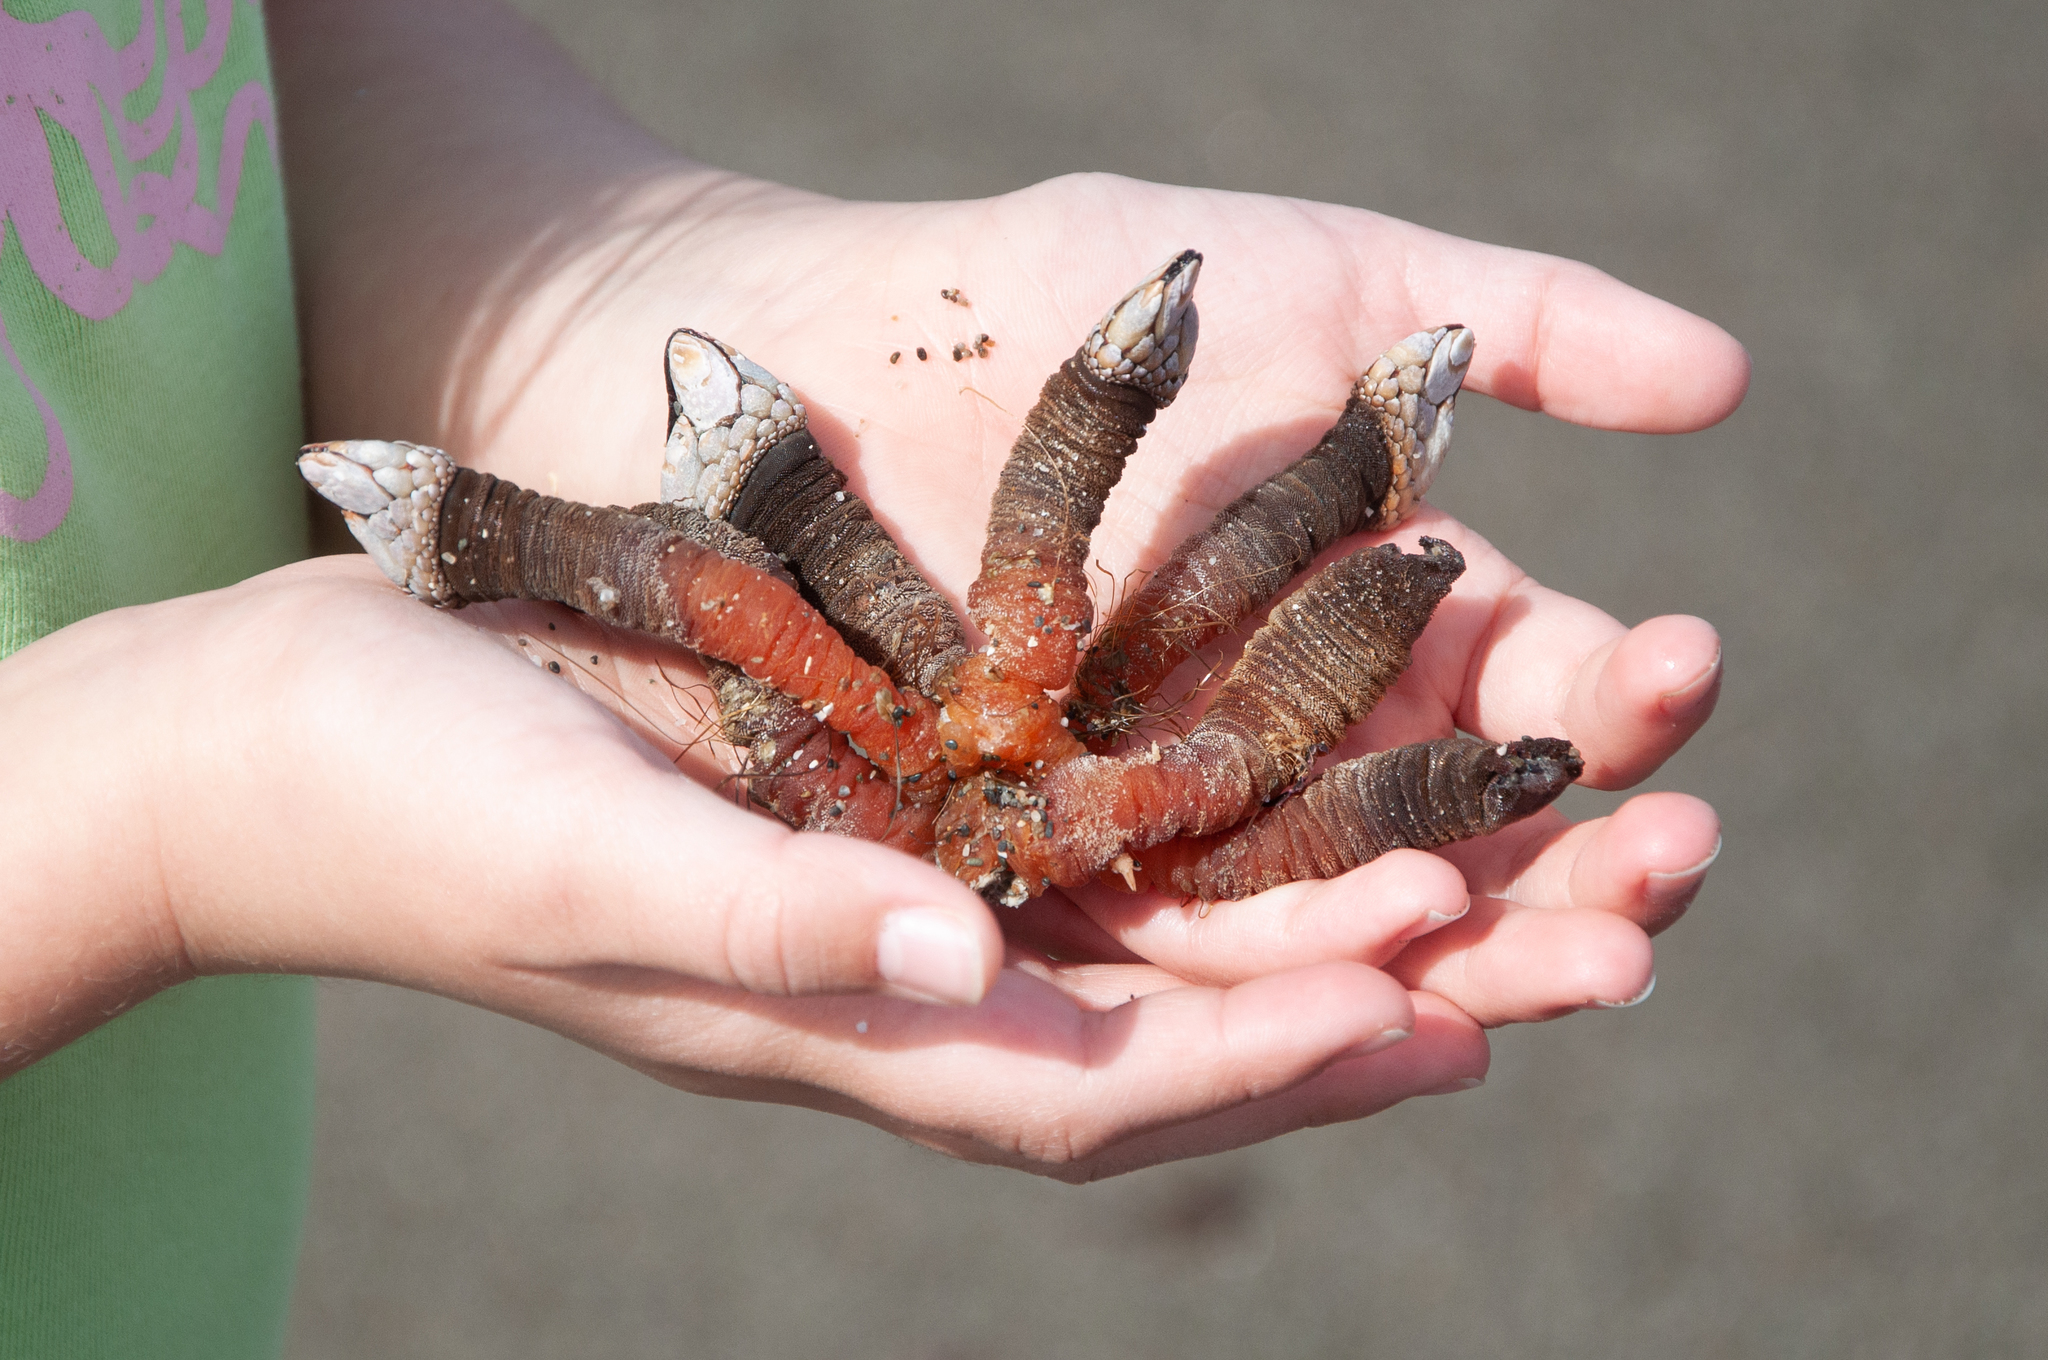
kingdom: Animalia
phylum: Arthropoda
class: Maxillopoda
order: Pedunculata
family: Pollicipedidae
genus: Pollicipes
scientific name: Pollicipes polymerus
